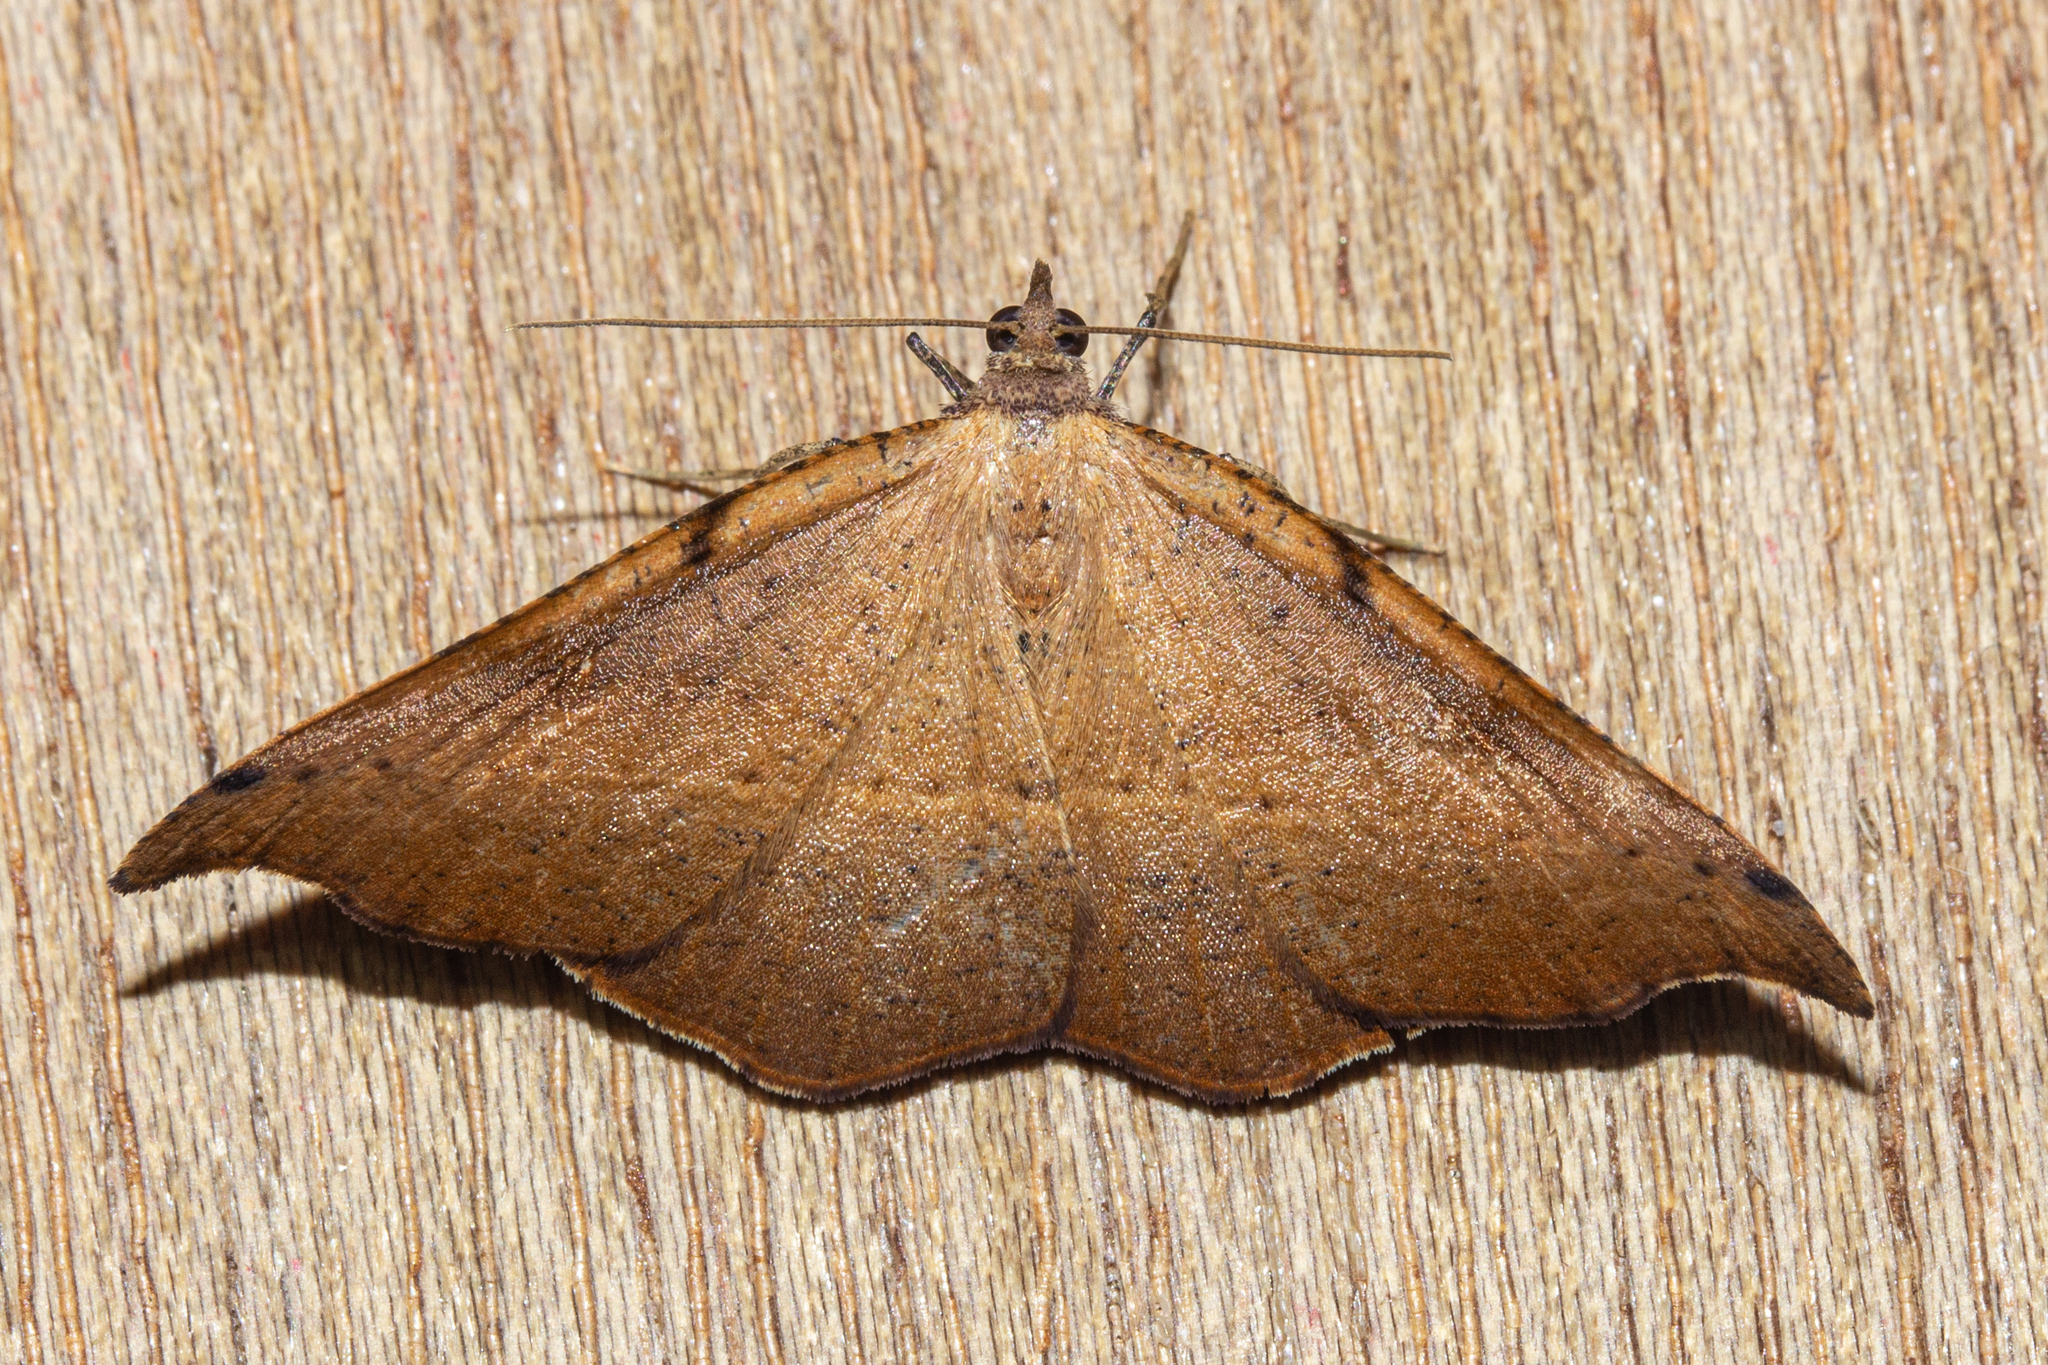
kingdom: Animalia
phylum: Arthropoda
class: Insecta
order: Lepidoptera
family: Geometridae
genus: Sarisa
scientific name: Sarisa muriferata
